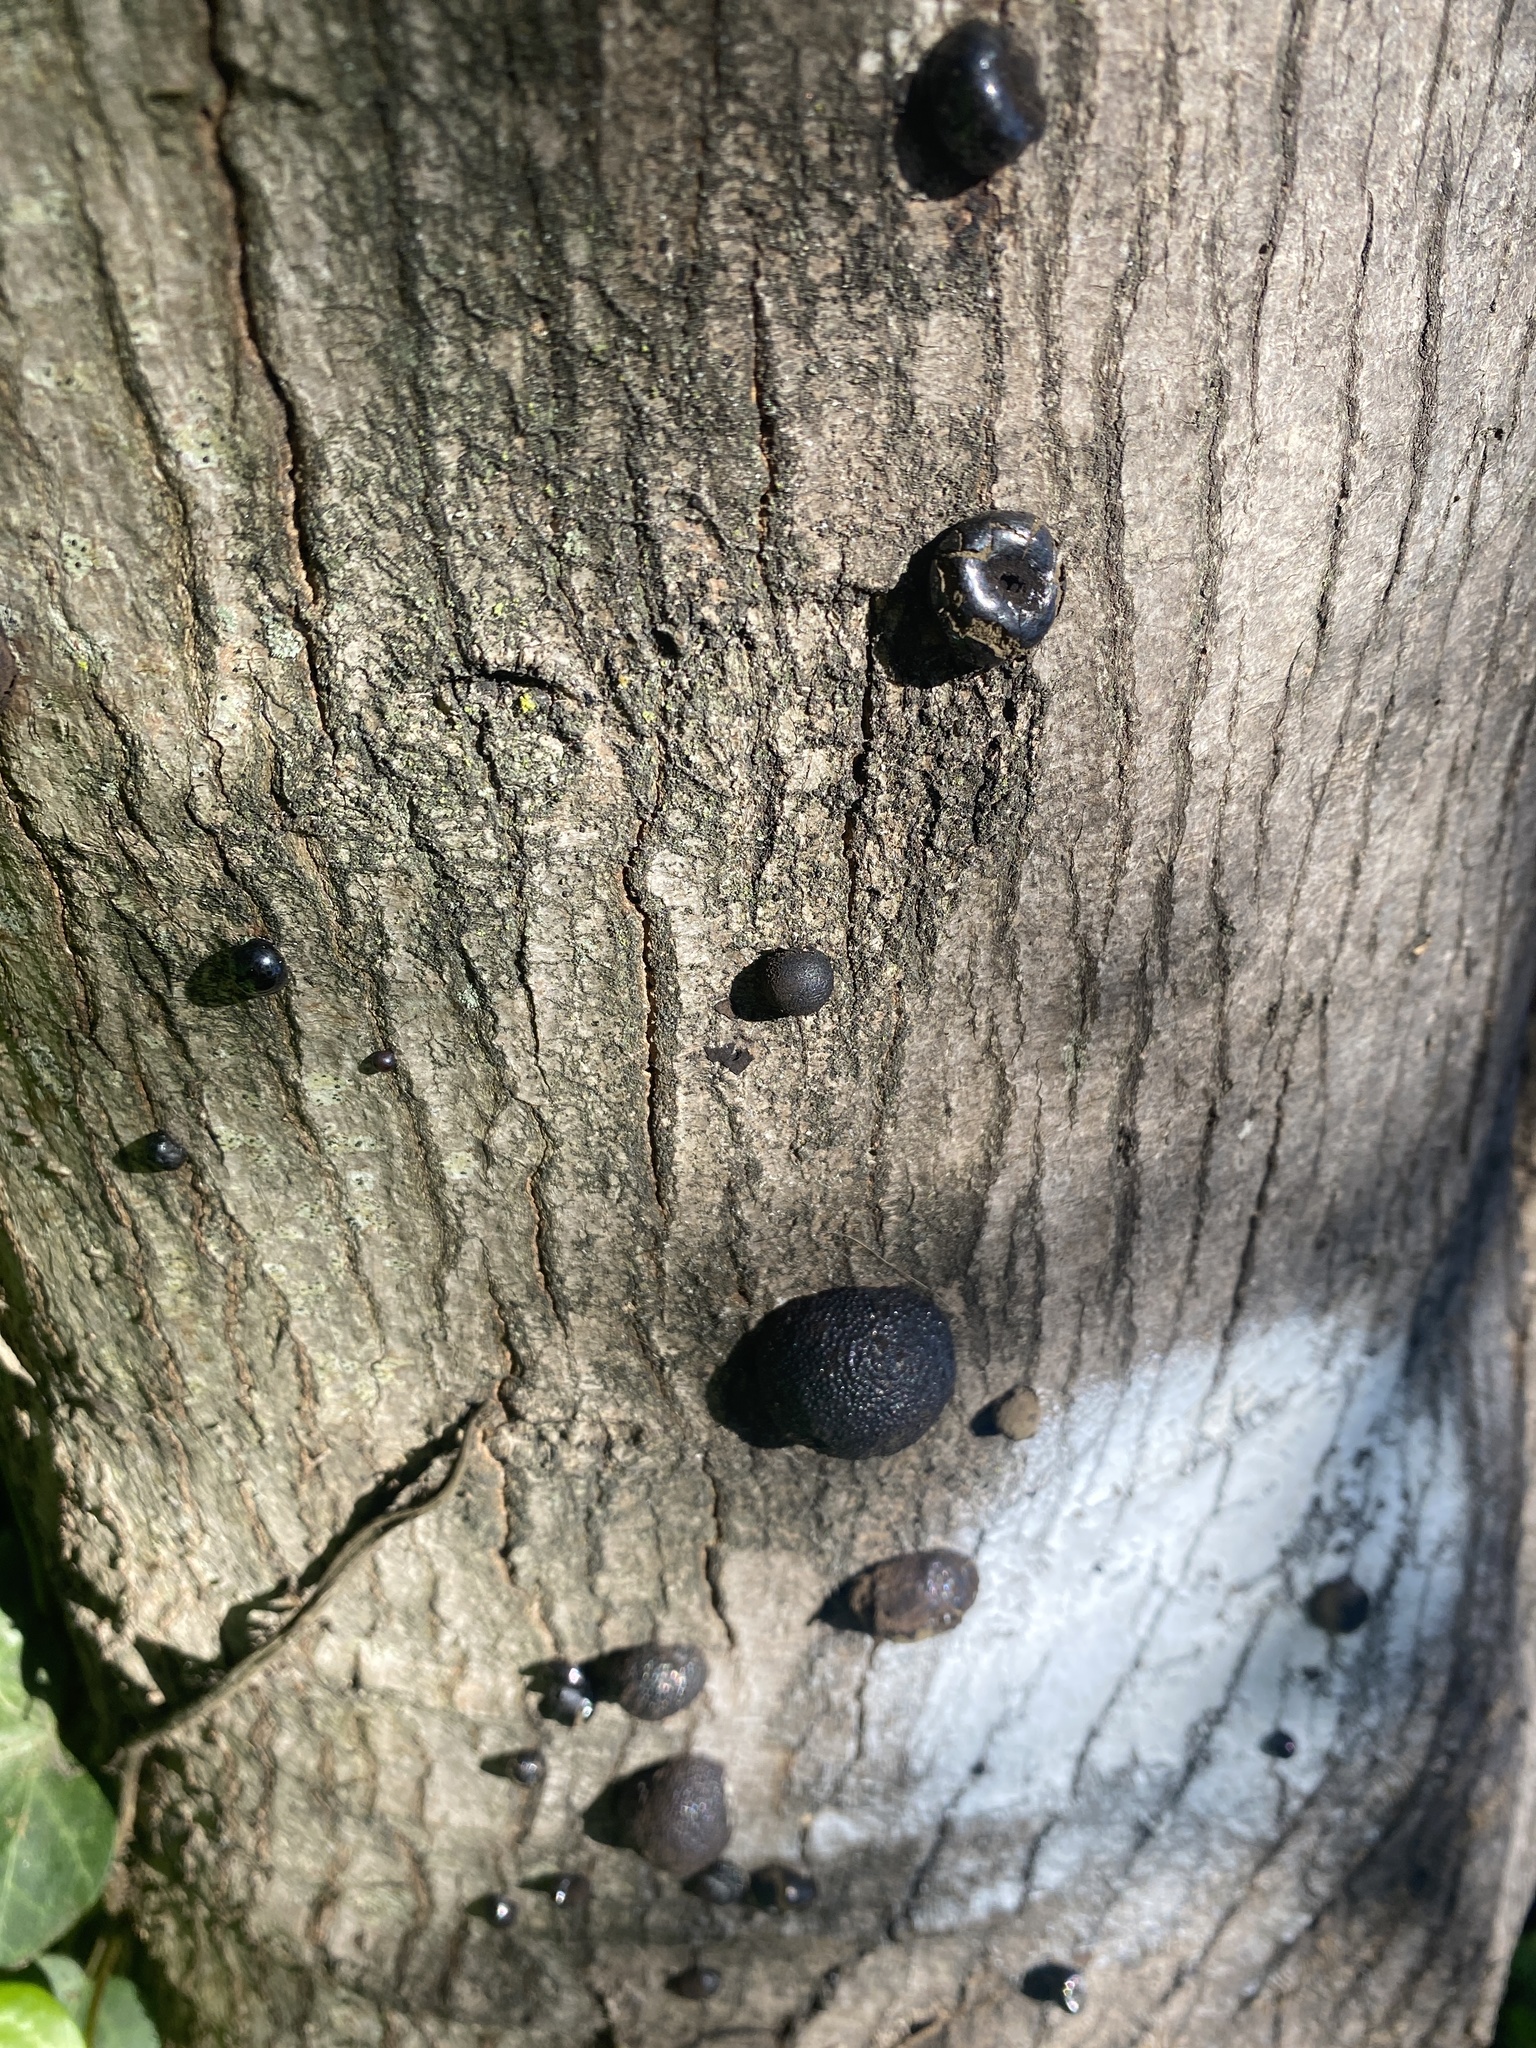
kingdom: Fungi
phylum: Ascomycota
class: Sordariomycetes
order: Xylariales
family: Hypoxylaceae
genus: Annulohypoxylon
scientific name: Annulohypoxylon thouarsianum
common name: Cramp balls
